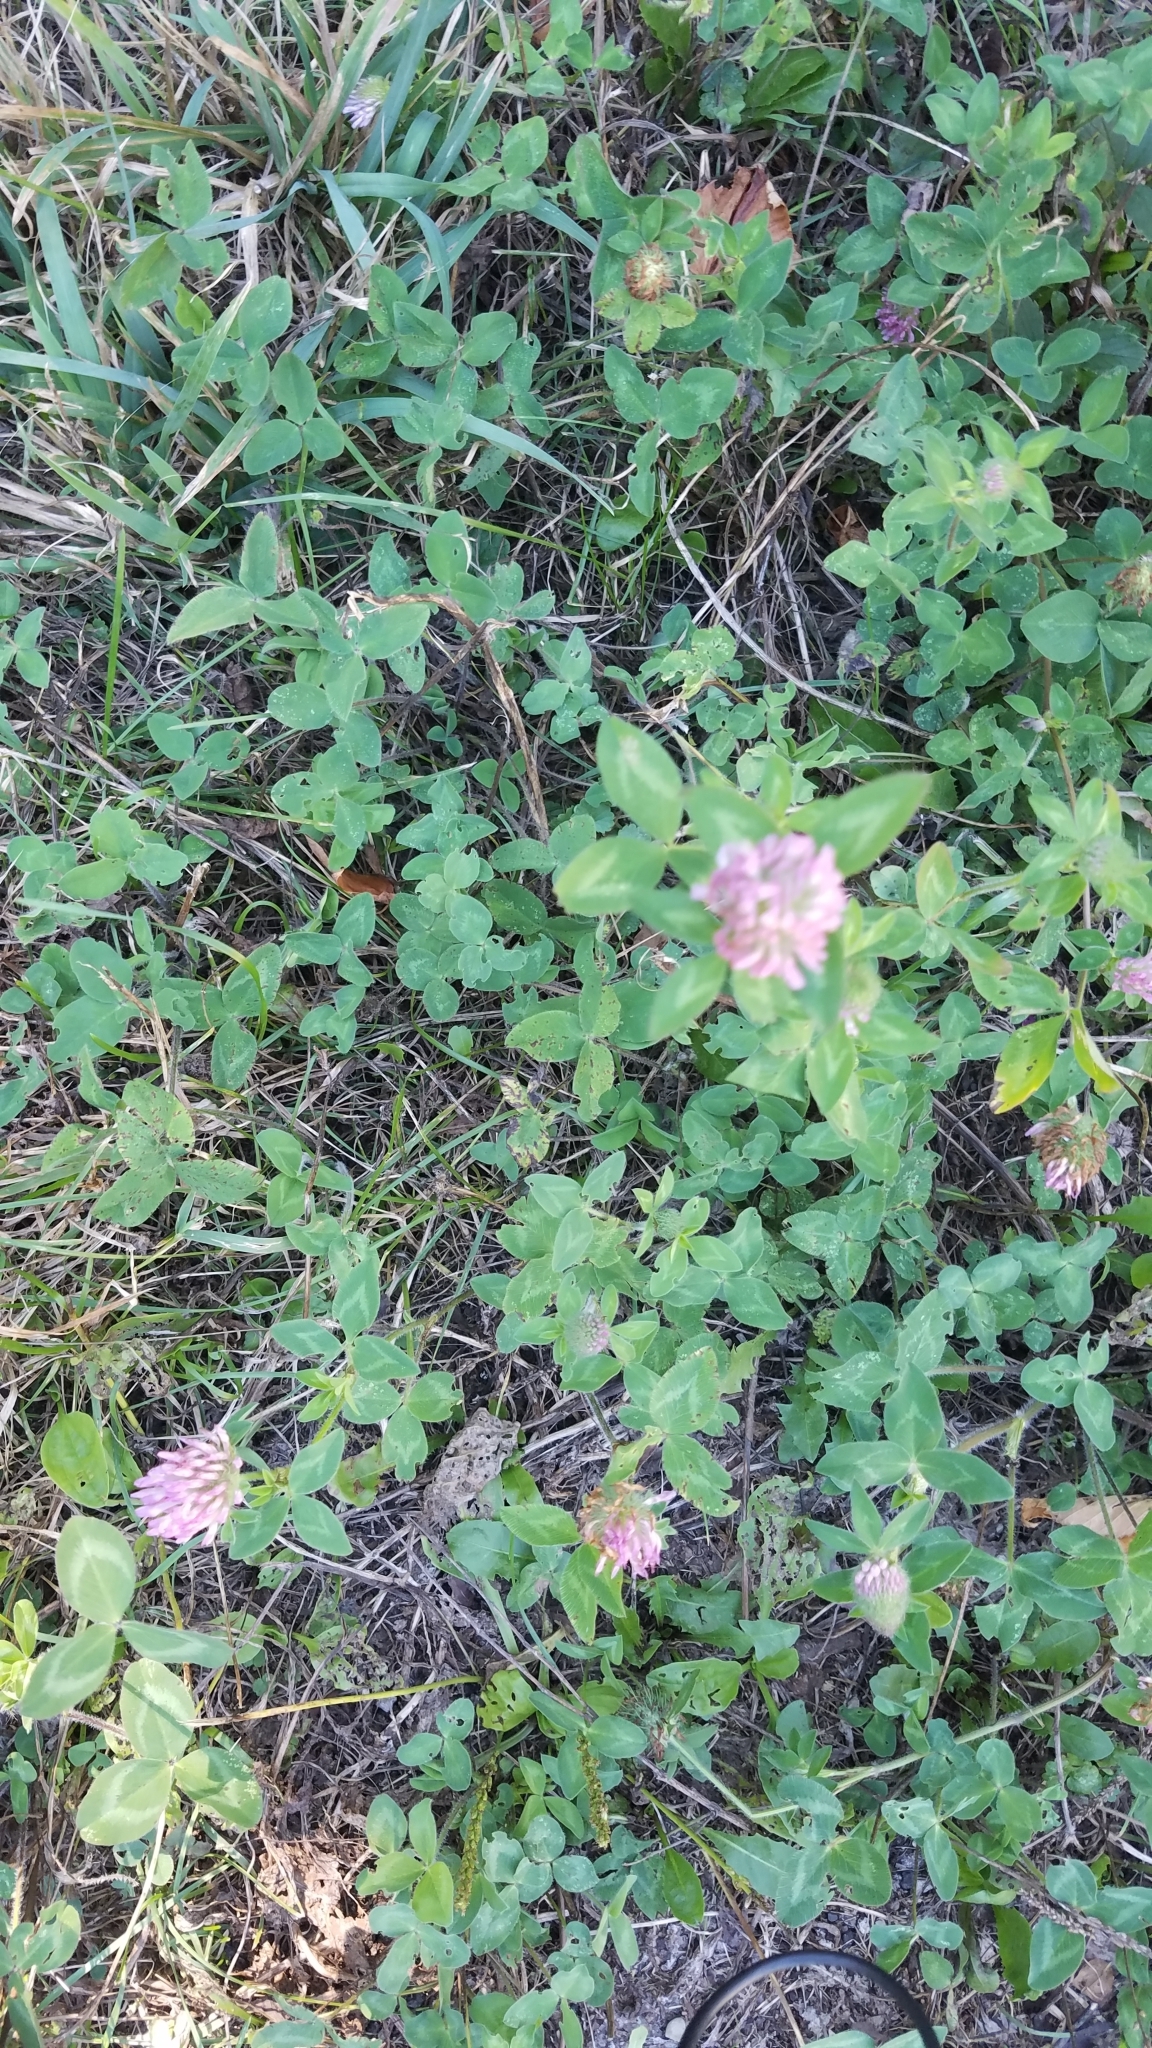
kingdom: Plantae
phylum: Tracheophyta
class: Magnoliopsida
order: Fabales
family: Fabaceae
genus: Trifolium
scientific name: Trifolium pratense
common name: Red clover
